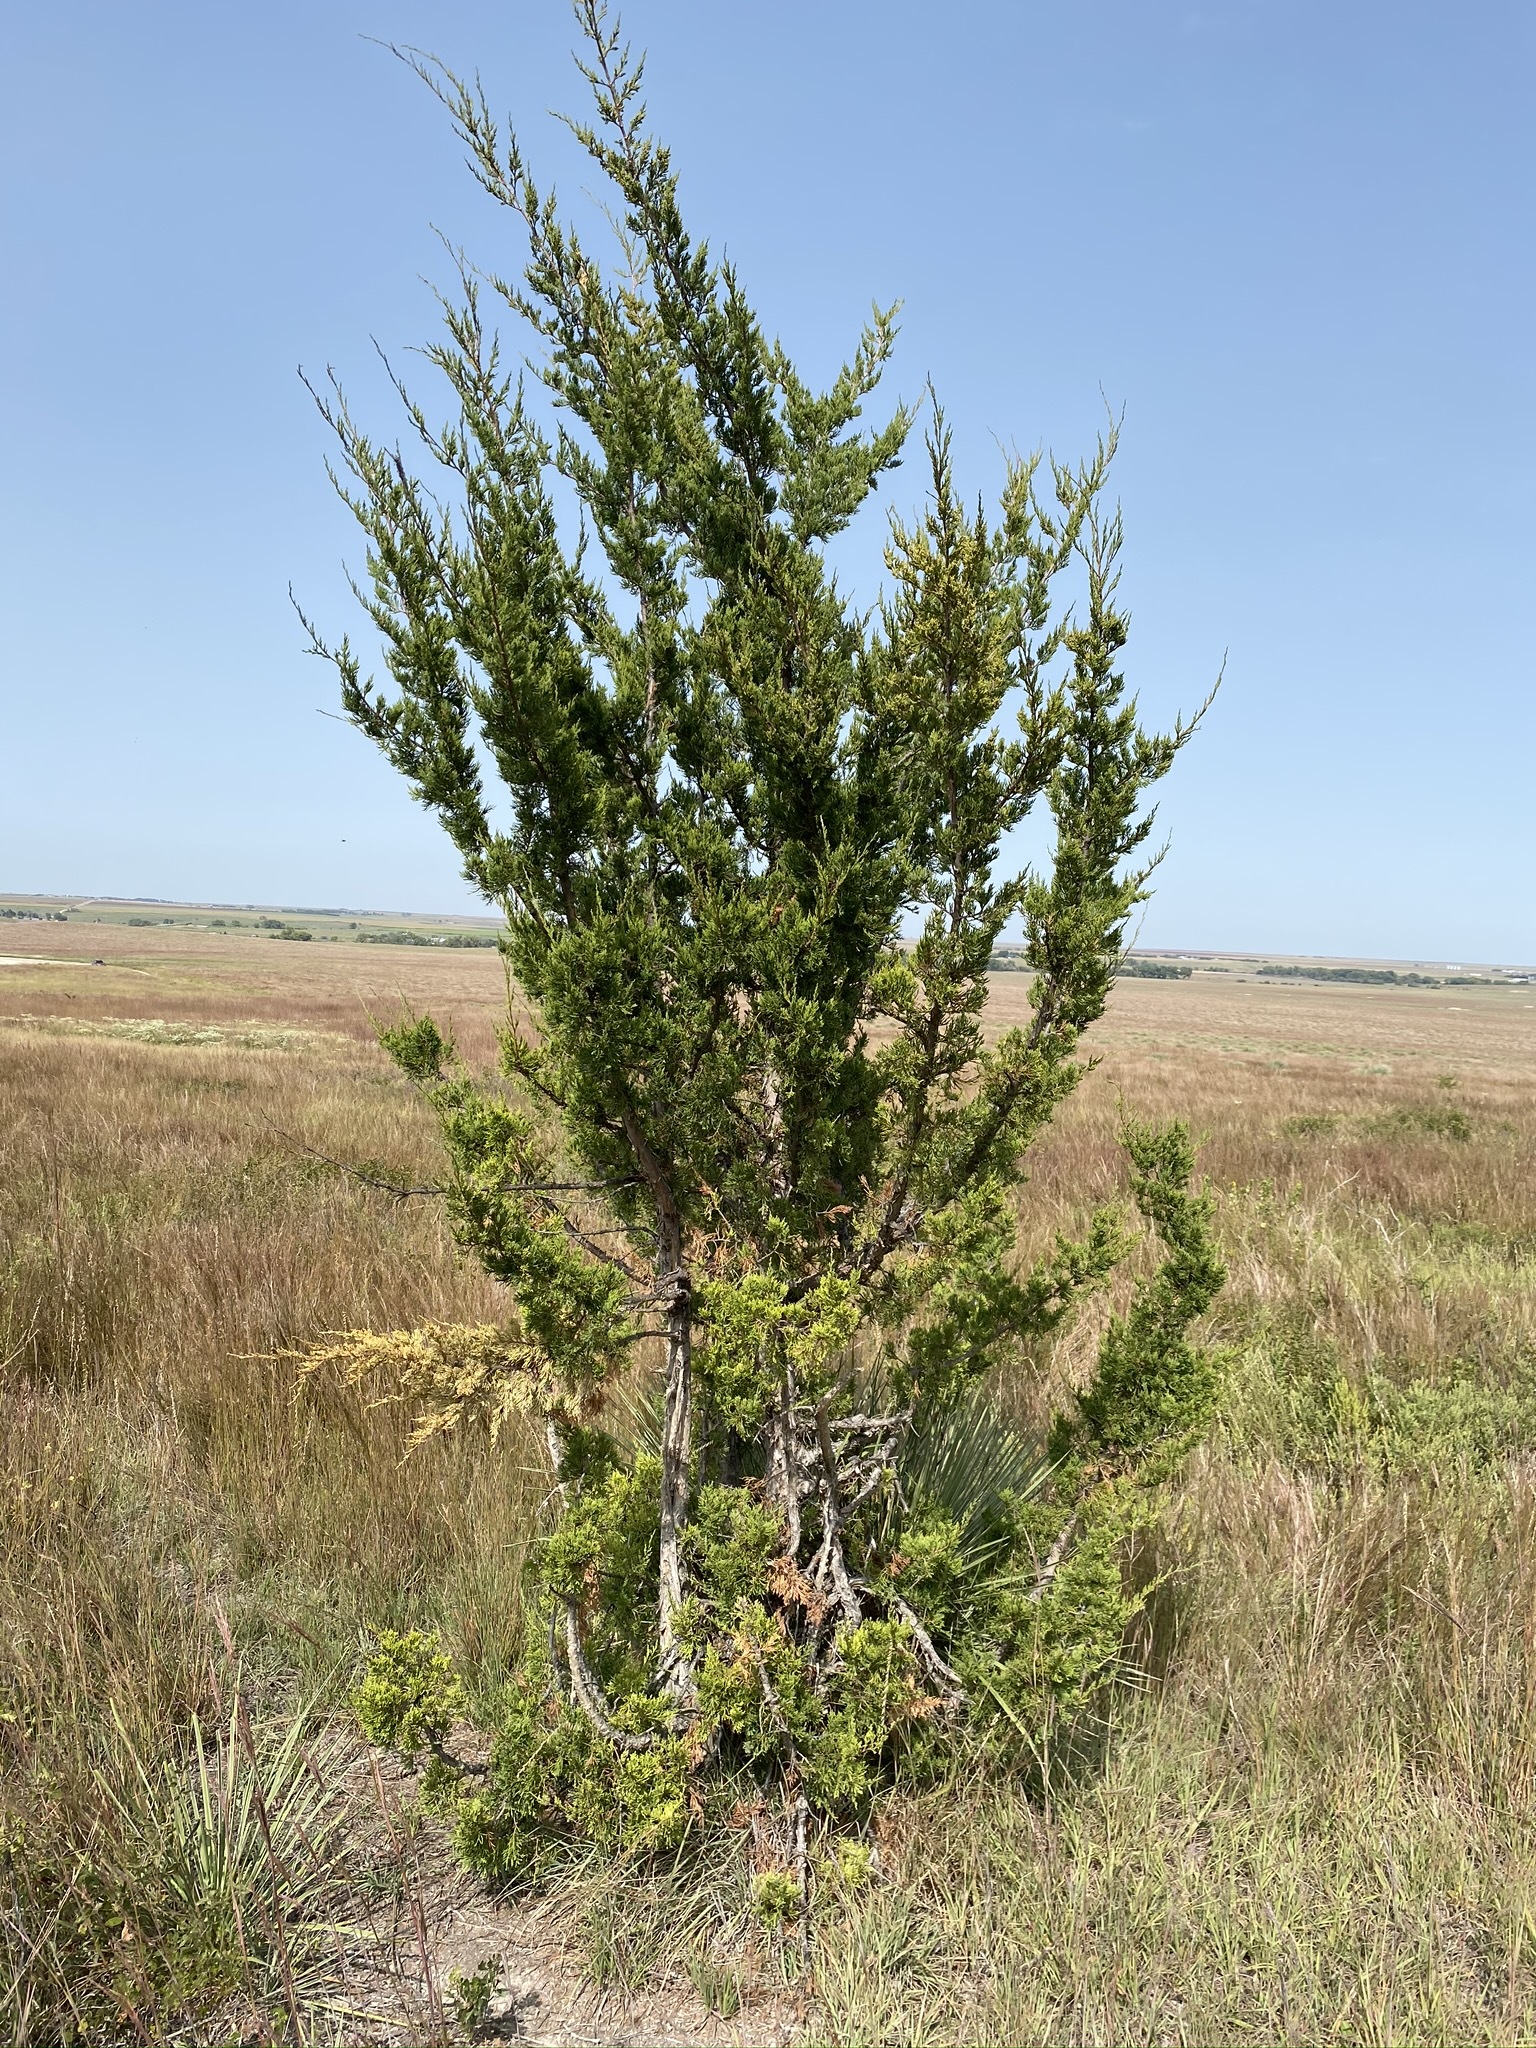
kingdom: Plantae
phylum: Tracheophyta
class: Pinopsida
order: Pinales
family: Cupressaceae
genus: Juniperus
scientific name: Juniperus virginiana
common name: Red juniper
